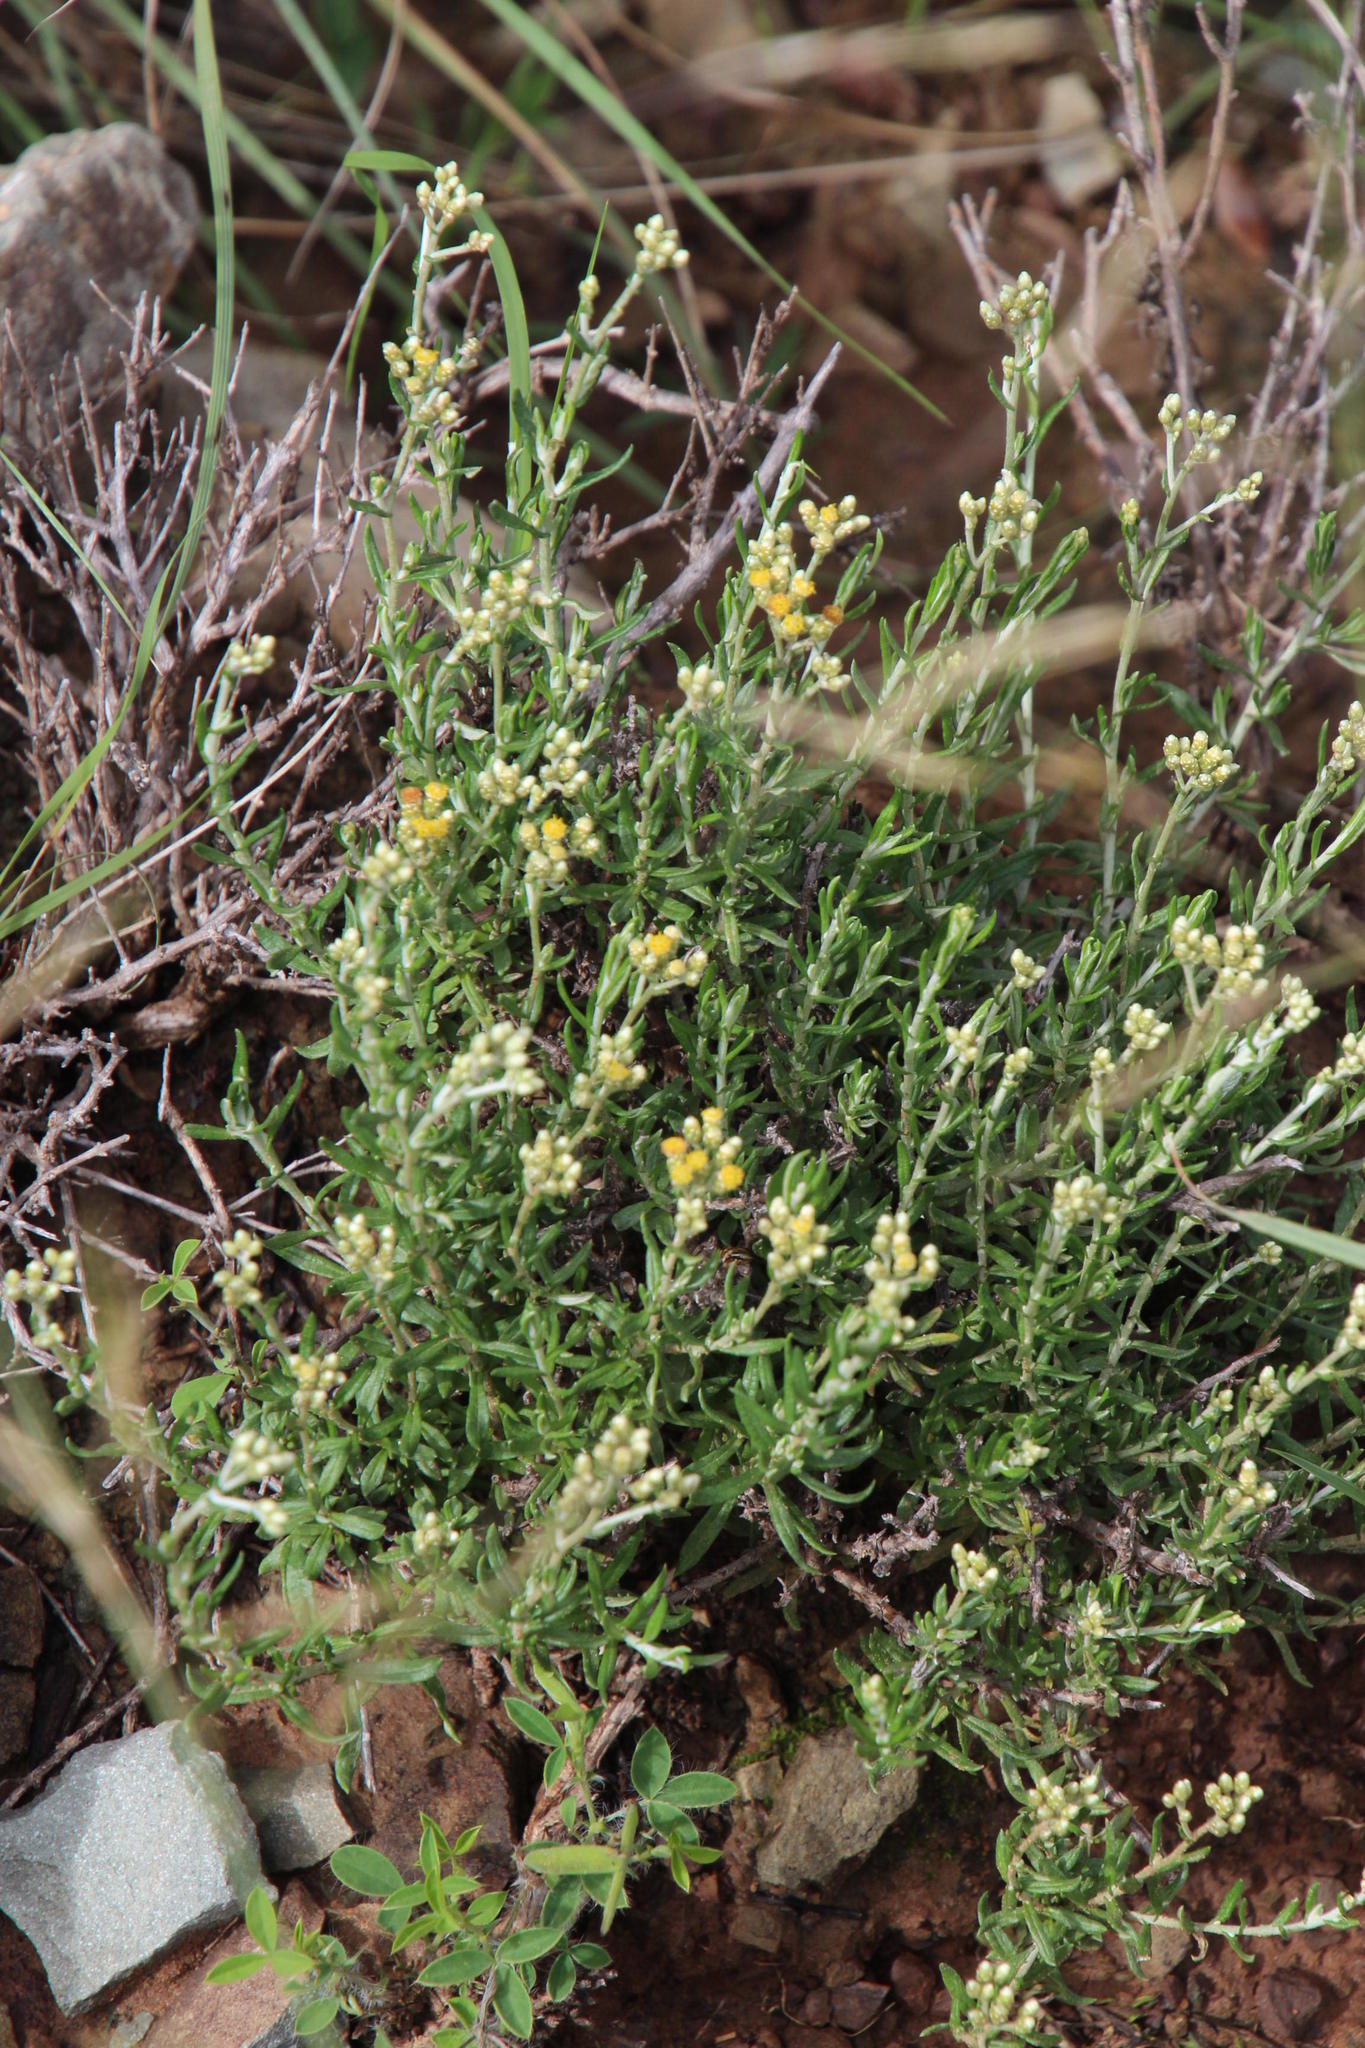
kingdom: Plantae
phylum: Tracheophyta
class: Magnoliopsida
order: Asterales
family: Asteraceae
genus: Helichrysum
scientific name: Helichrysum rosum
